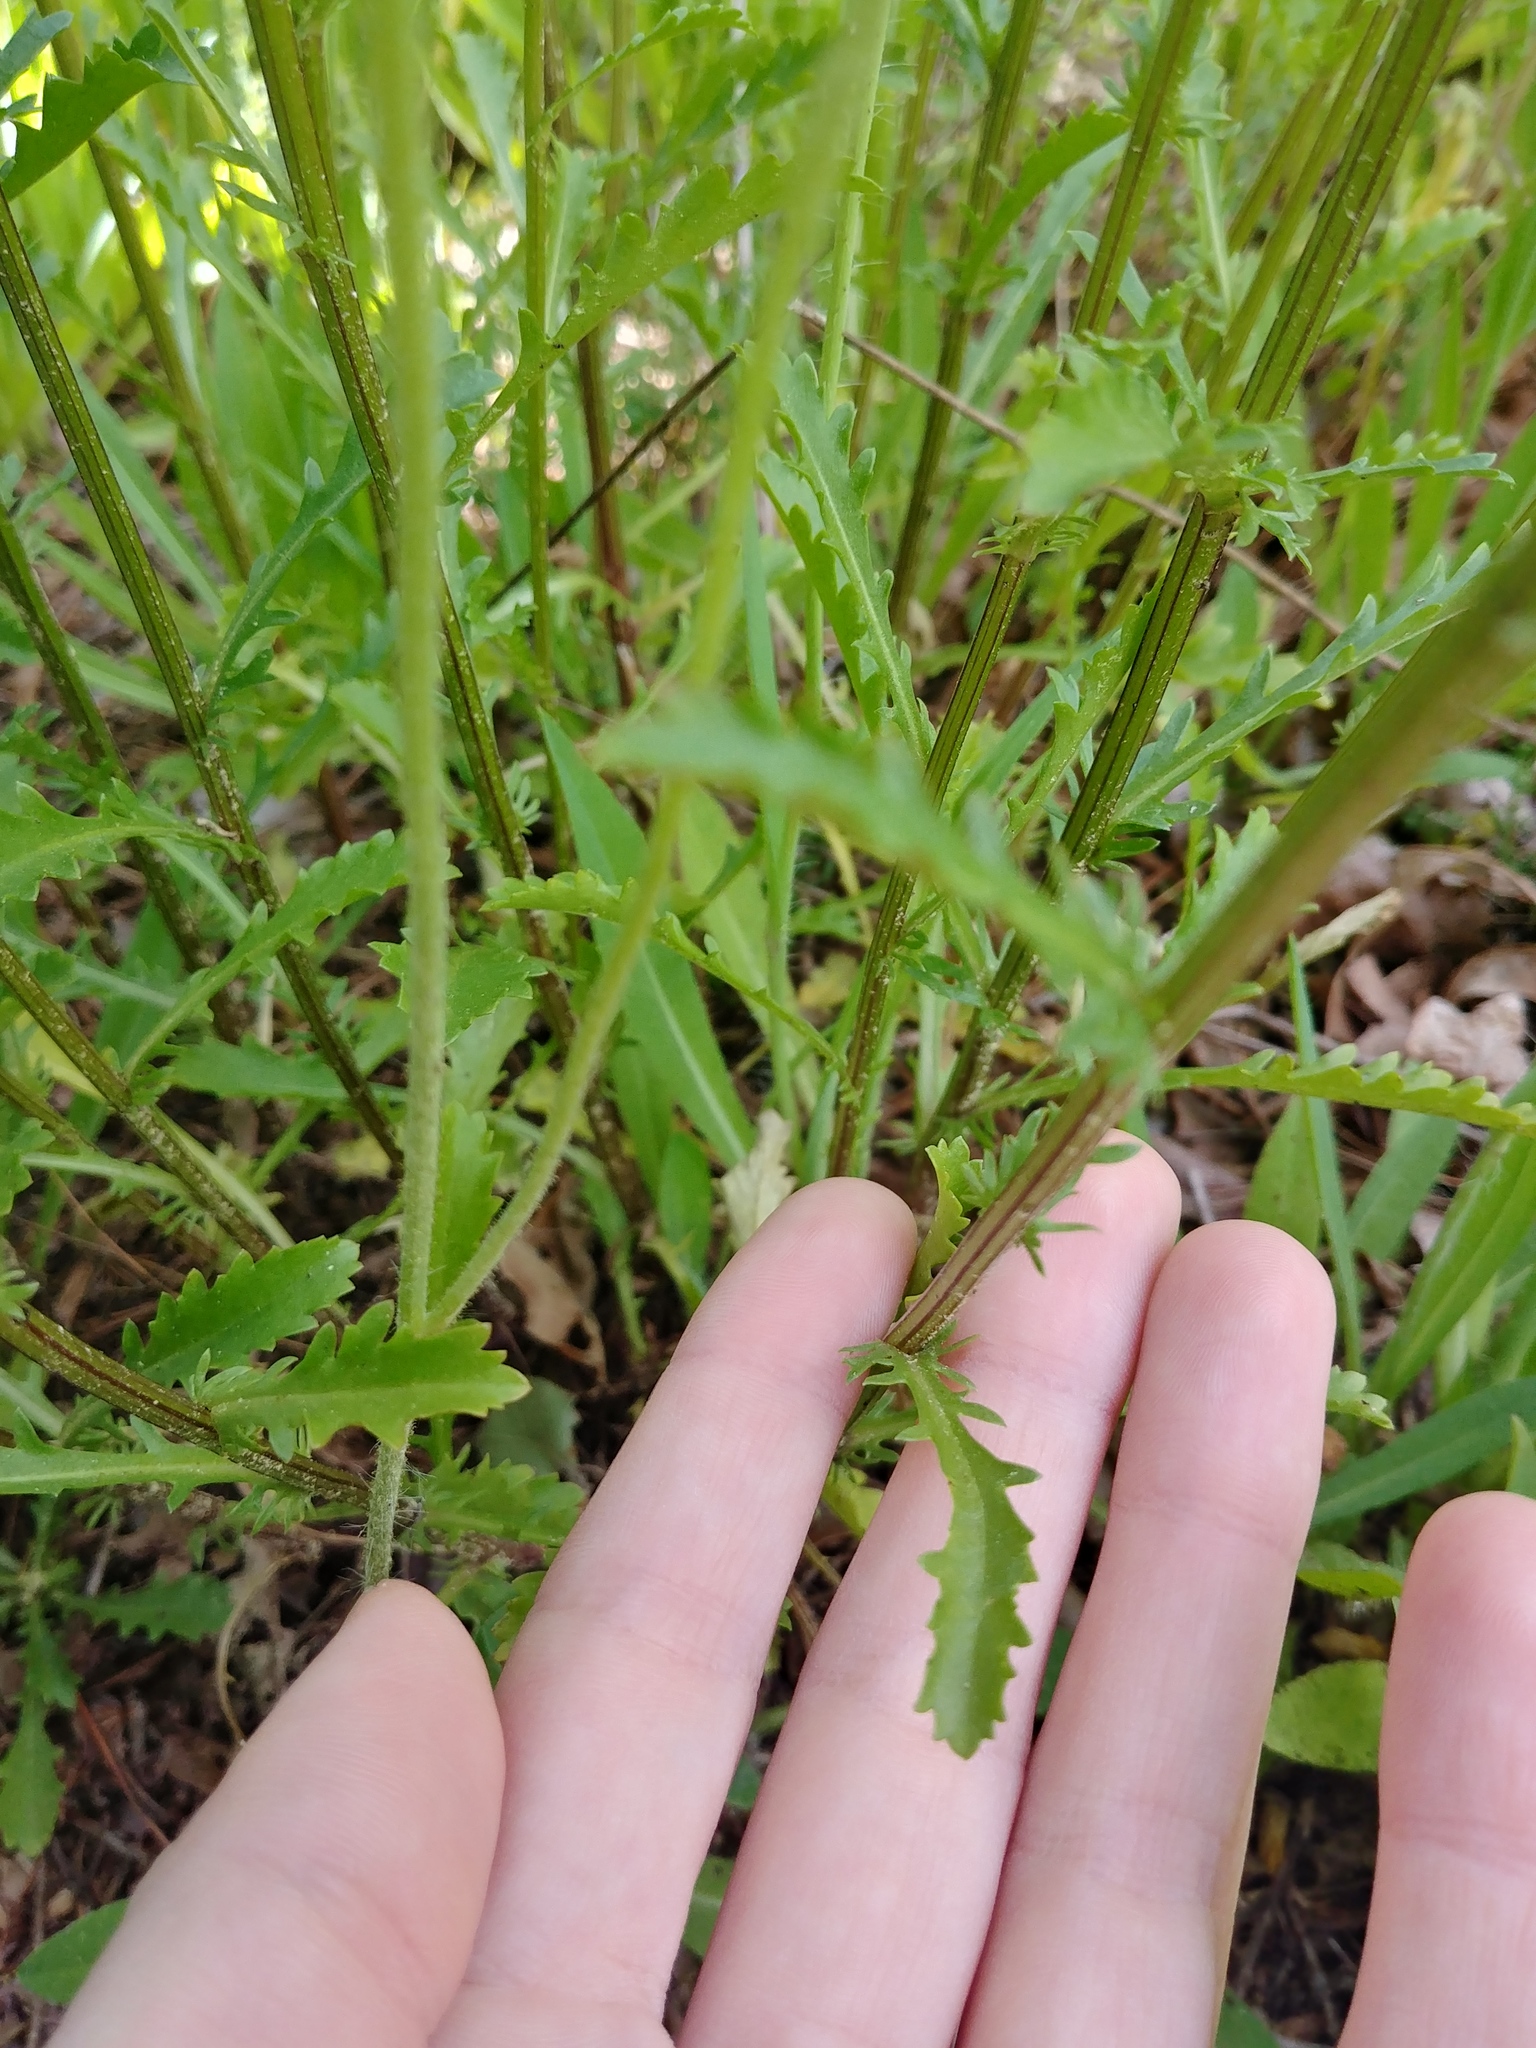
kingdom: Plantae
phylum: Tracheophyta
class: Magnoliopsida
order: Asterales
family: Asteraceae
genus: Leucanthemum
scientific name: Leucanthemum vulgare
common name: Oxeye daisy
